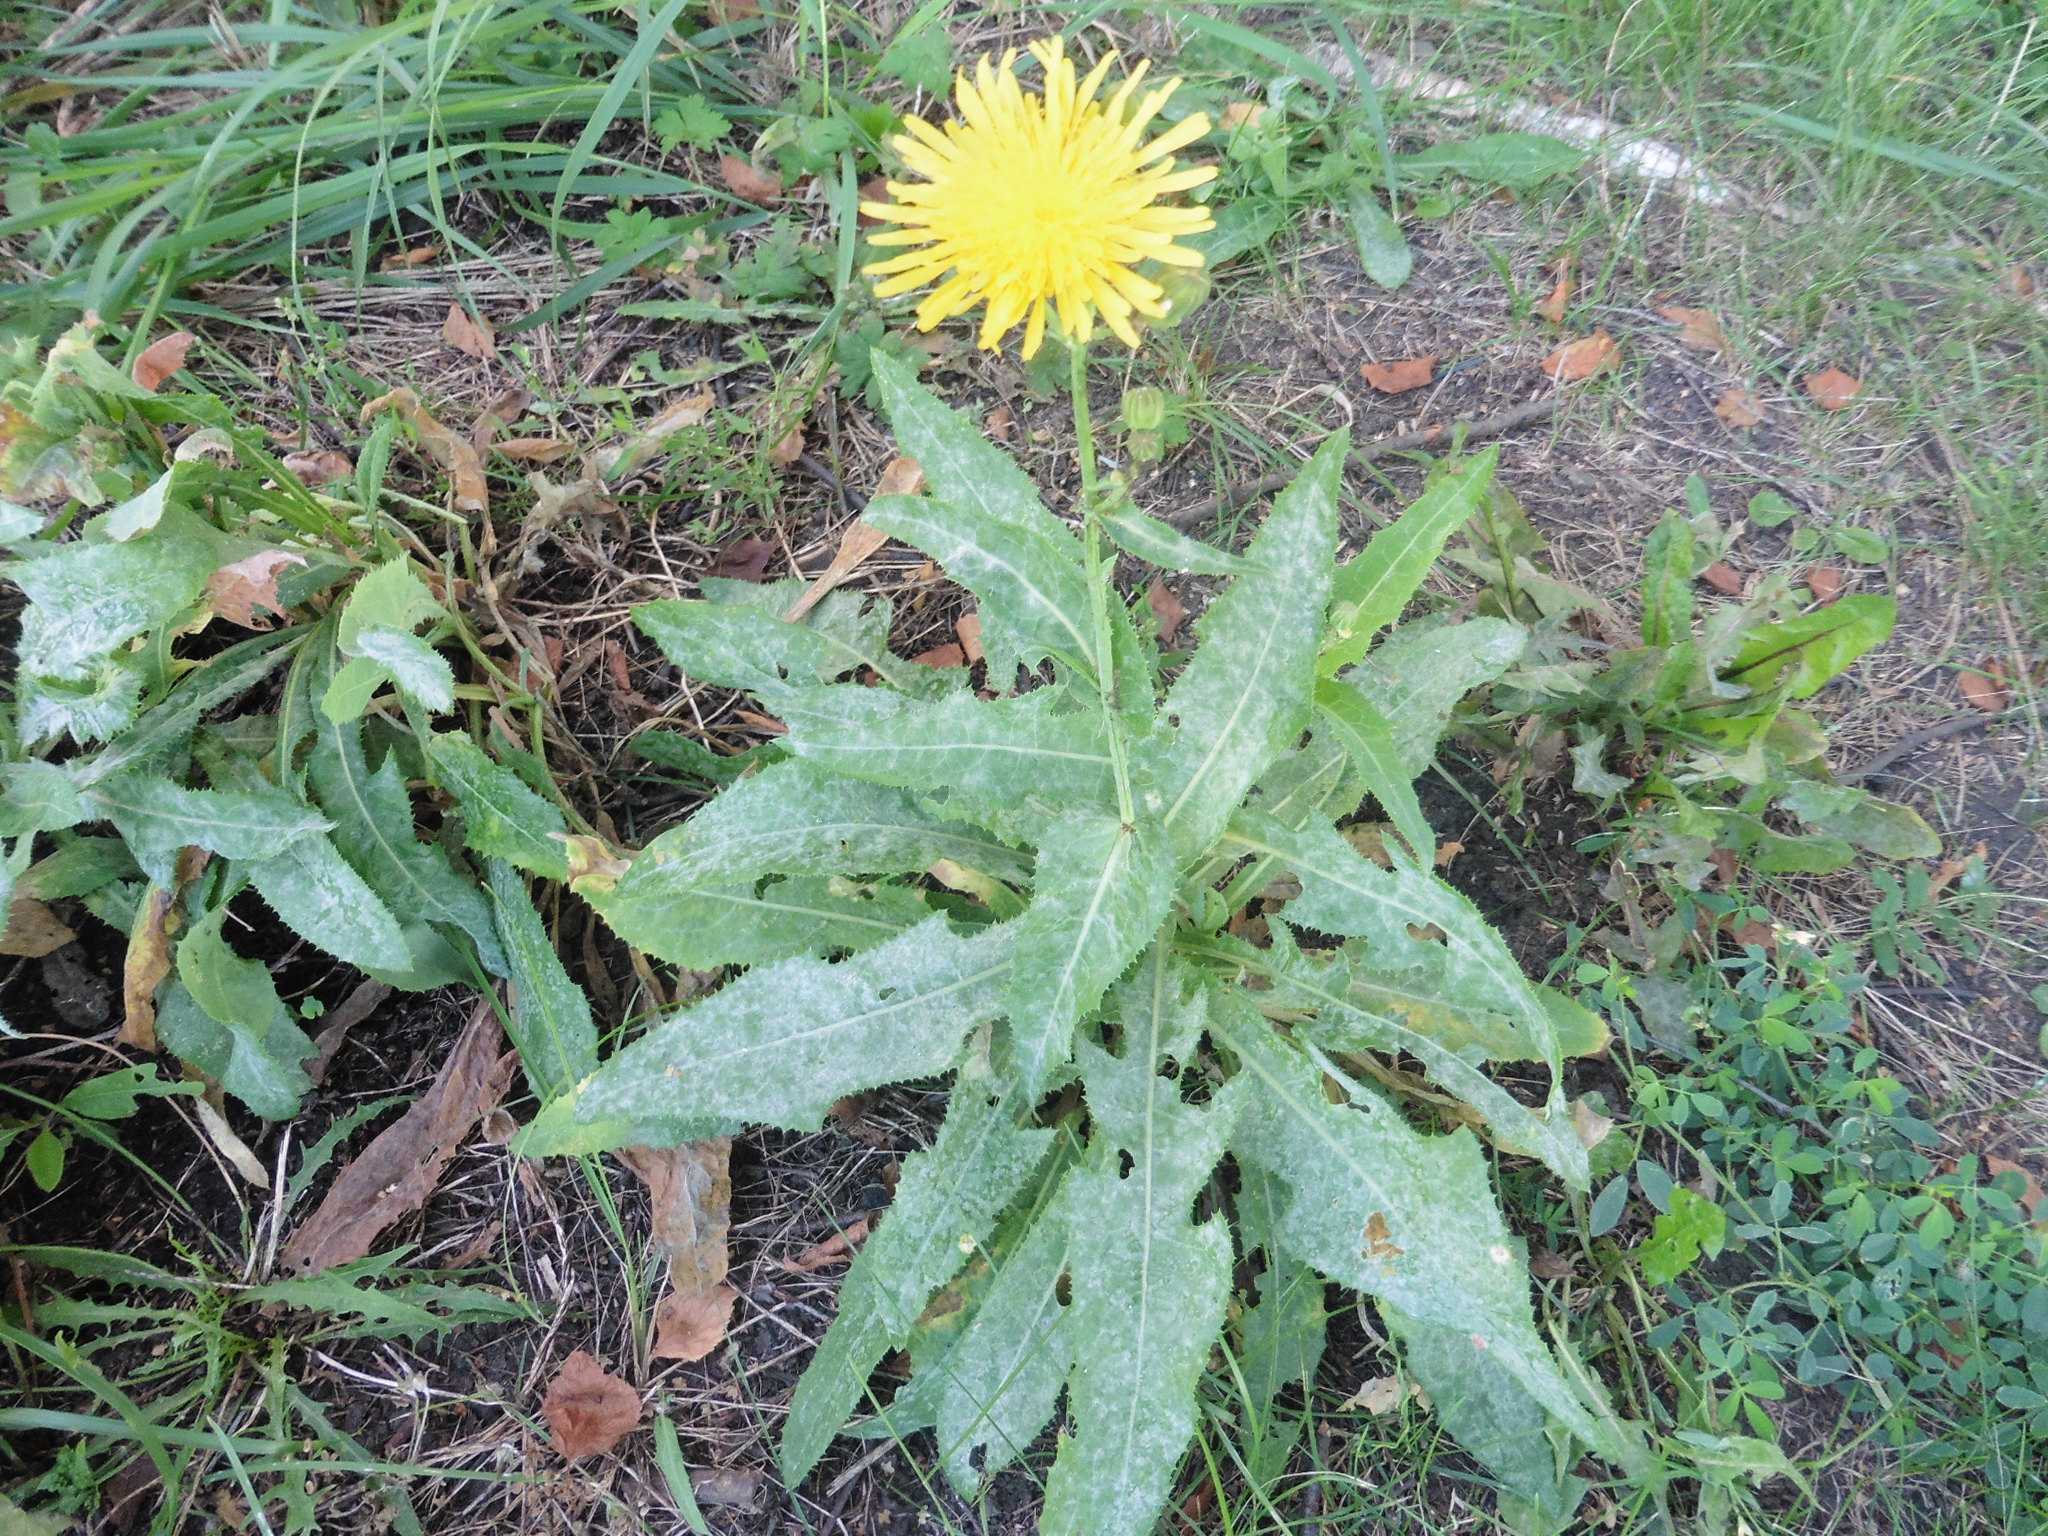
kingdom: Plantae
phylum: Tracheophyta
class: Magnoliopsida
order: Asterales
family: Asteraceae
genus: Sonchus
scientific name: Sonchus arvensis
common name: Perennial sow-thistle
